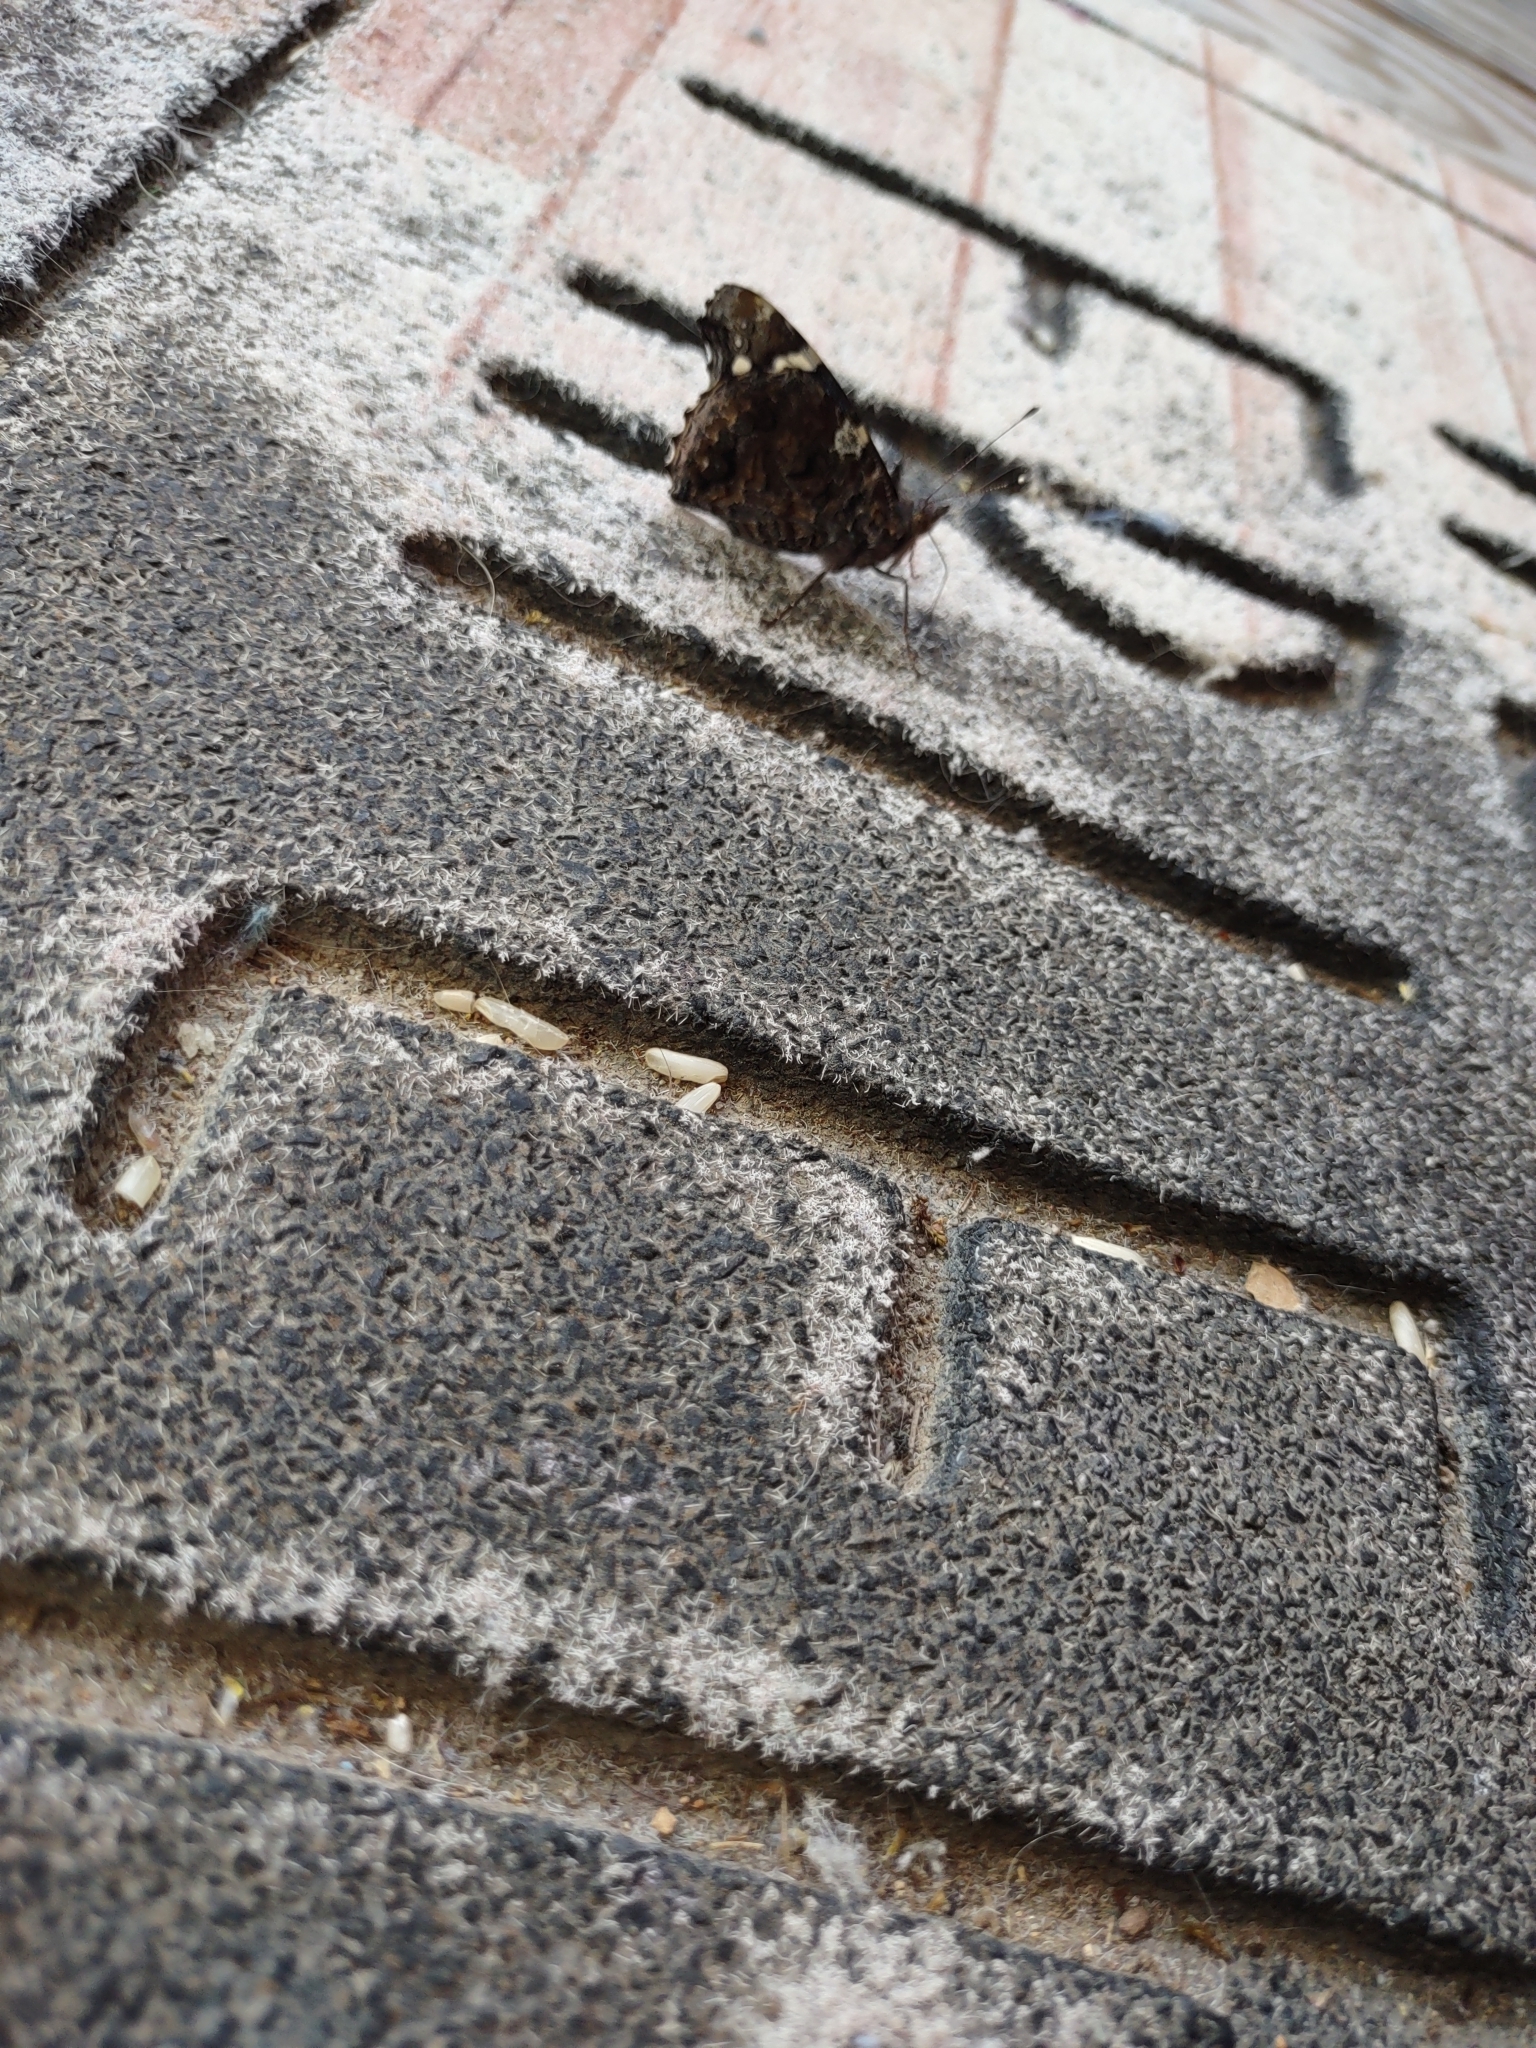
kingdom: Animalia
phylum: Arthropoda
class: Insecta
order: Lepidoptera
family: Nymphalidae
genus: Vanessa
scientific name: Vanessa atalanta
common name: Red admiral
